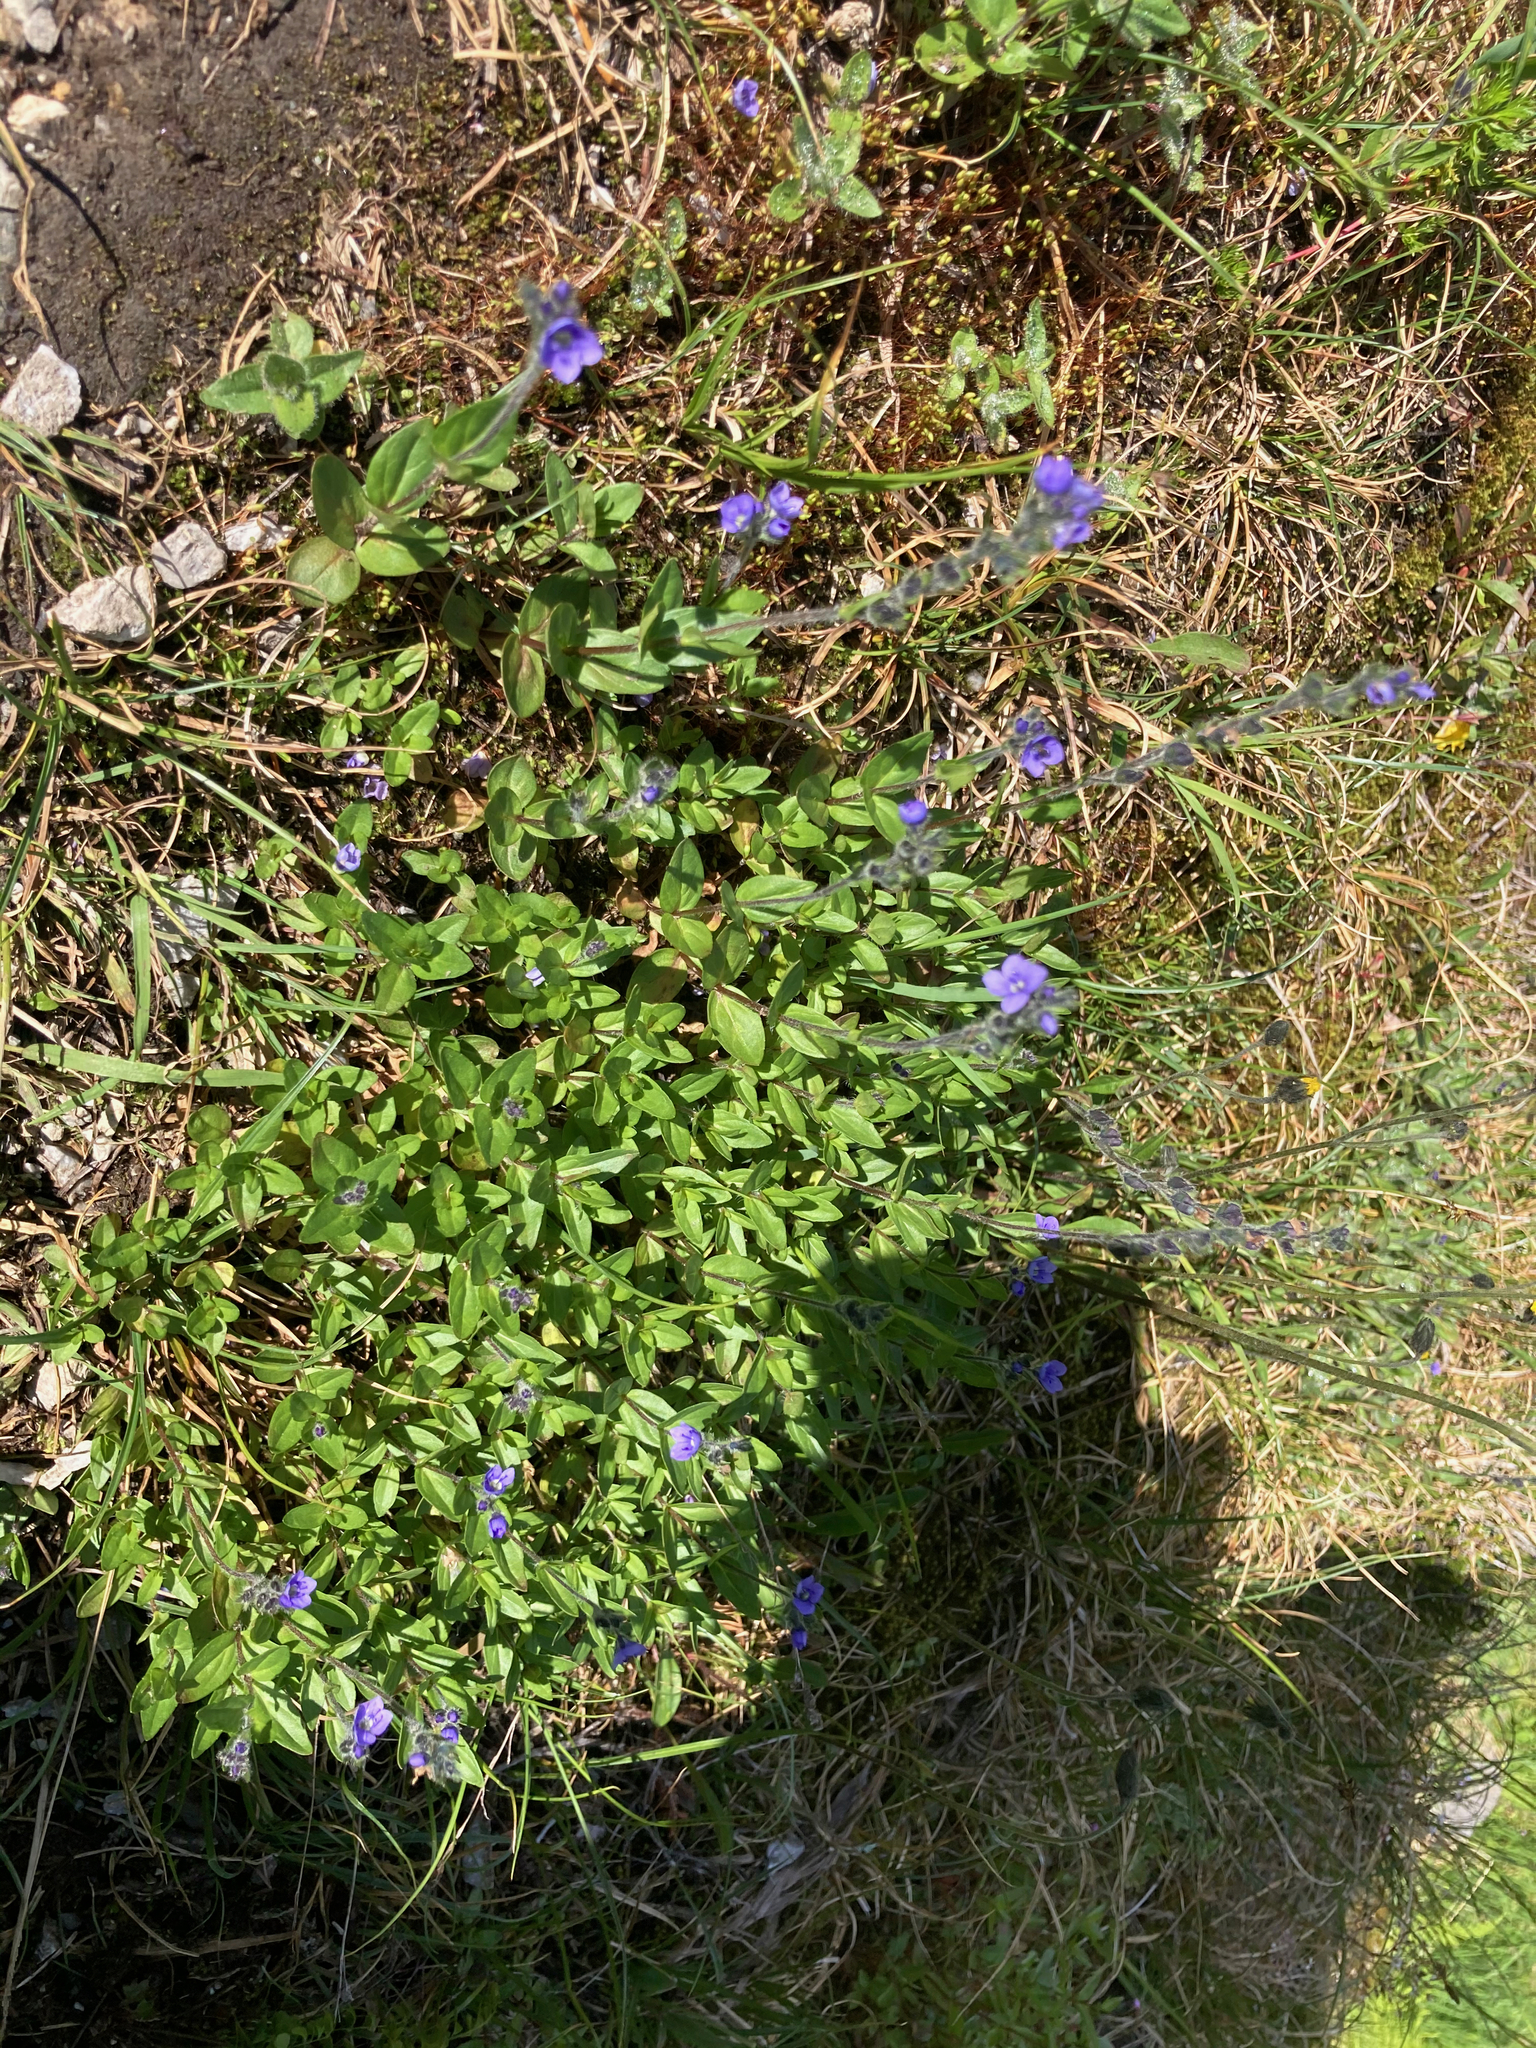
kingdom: Plantae
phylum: Tracheophyta
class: Magnoliopsida
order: Lamiales
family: Plantaginaceae
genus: Veronica
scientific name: Veronica wormskjoldii
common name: American alpine speedwell
